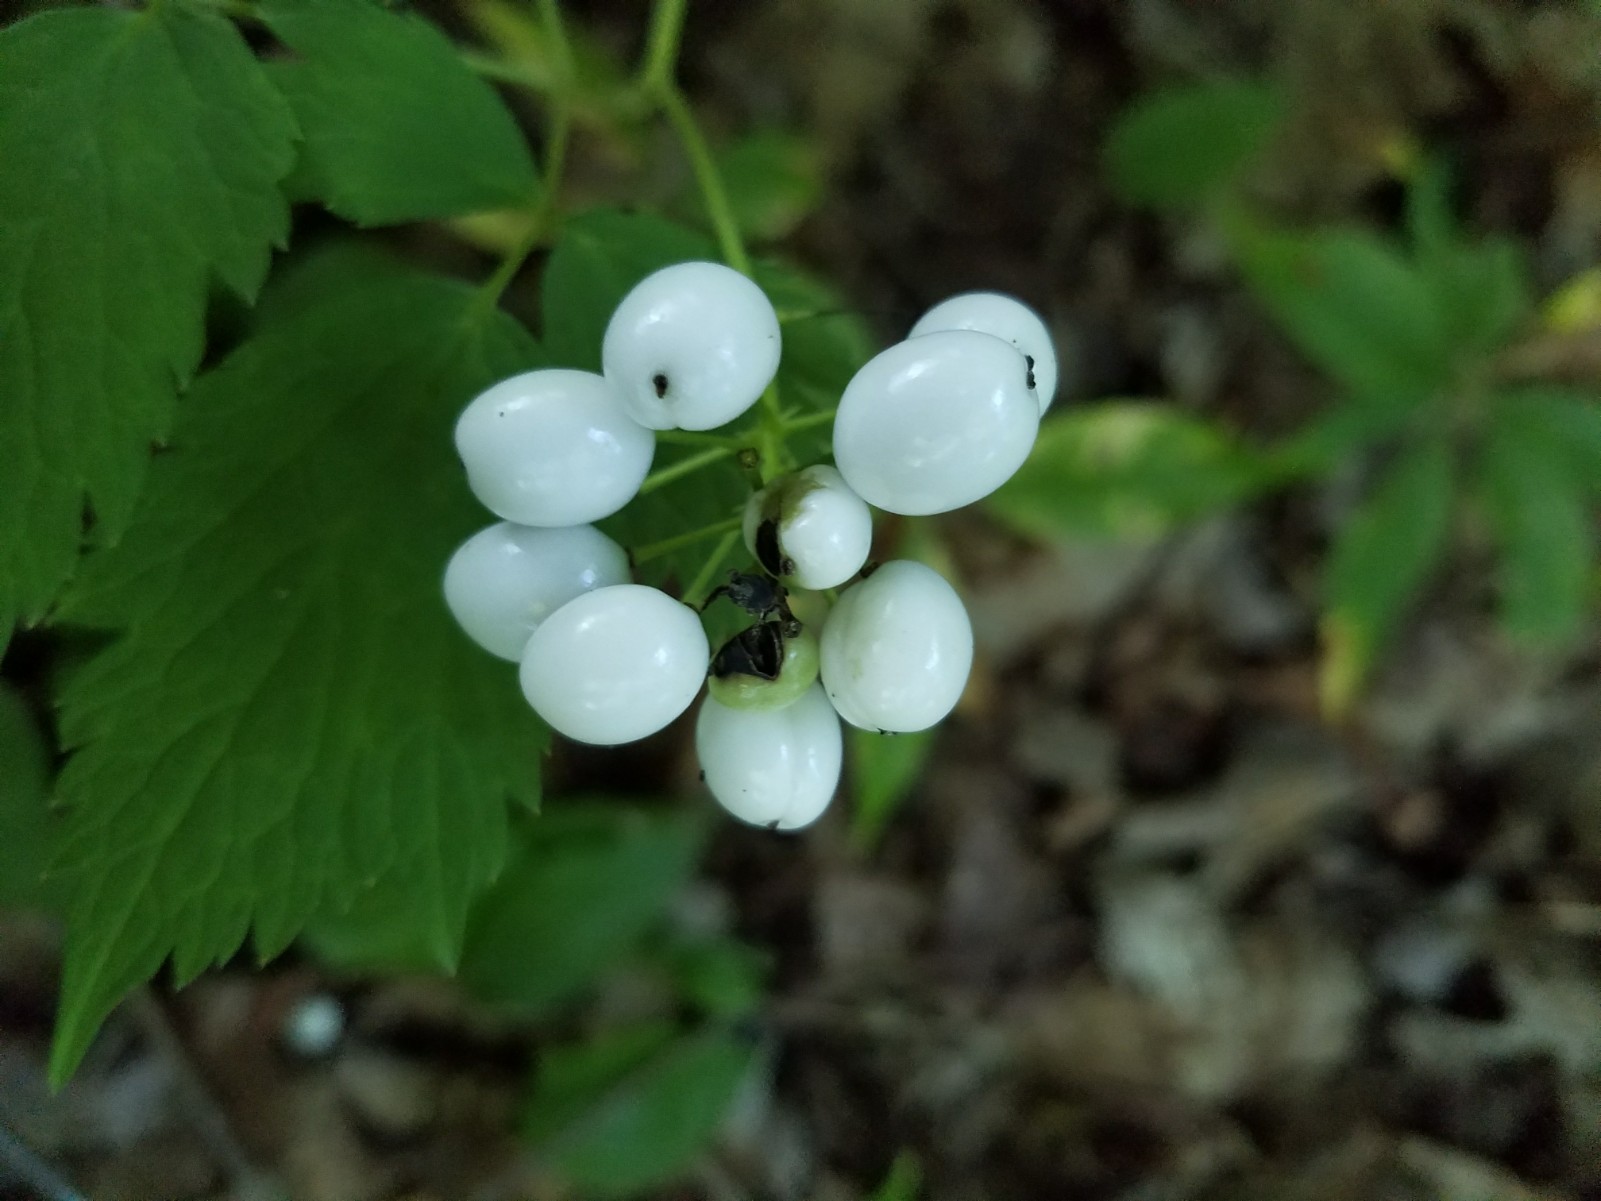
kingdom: Plantae
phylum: Tracheophyta
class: Magnoliopsida
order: Ranunculales
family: Ranunculaceae
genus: Actaea
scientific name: Actaea rubra
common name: Red baneberry
